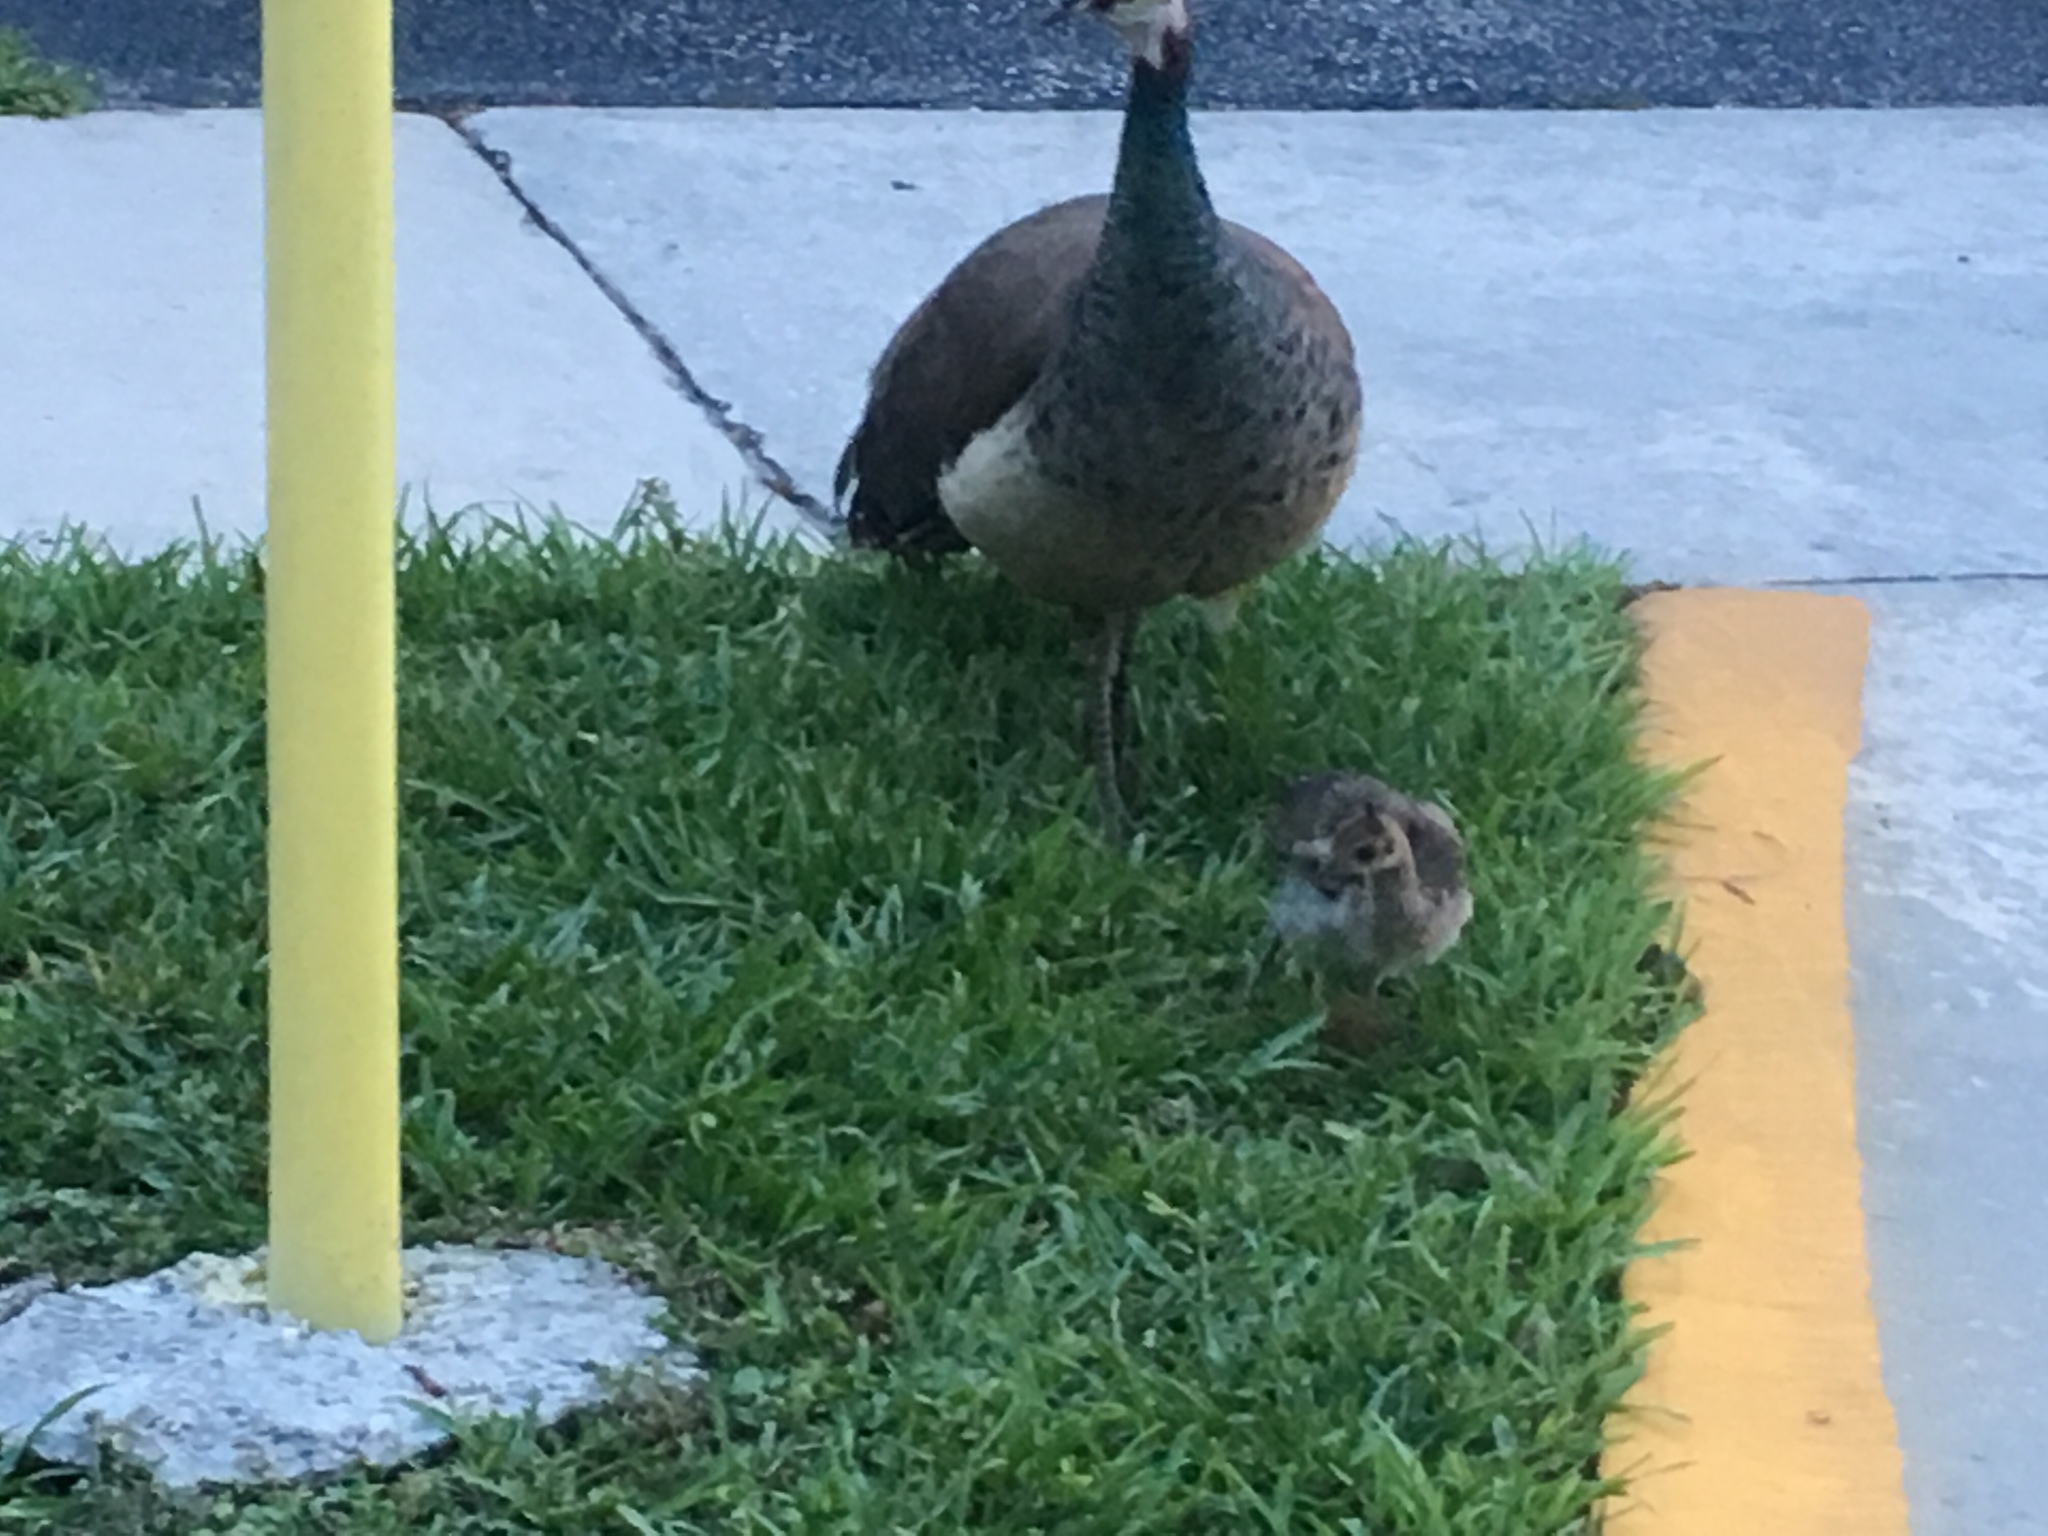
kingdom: Animalia
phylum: Chordata
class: Aves
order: Galliformes
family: Phasianidae
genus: Pavo
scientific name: Pavo cristatus
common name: Indian peafowl
